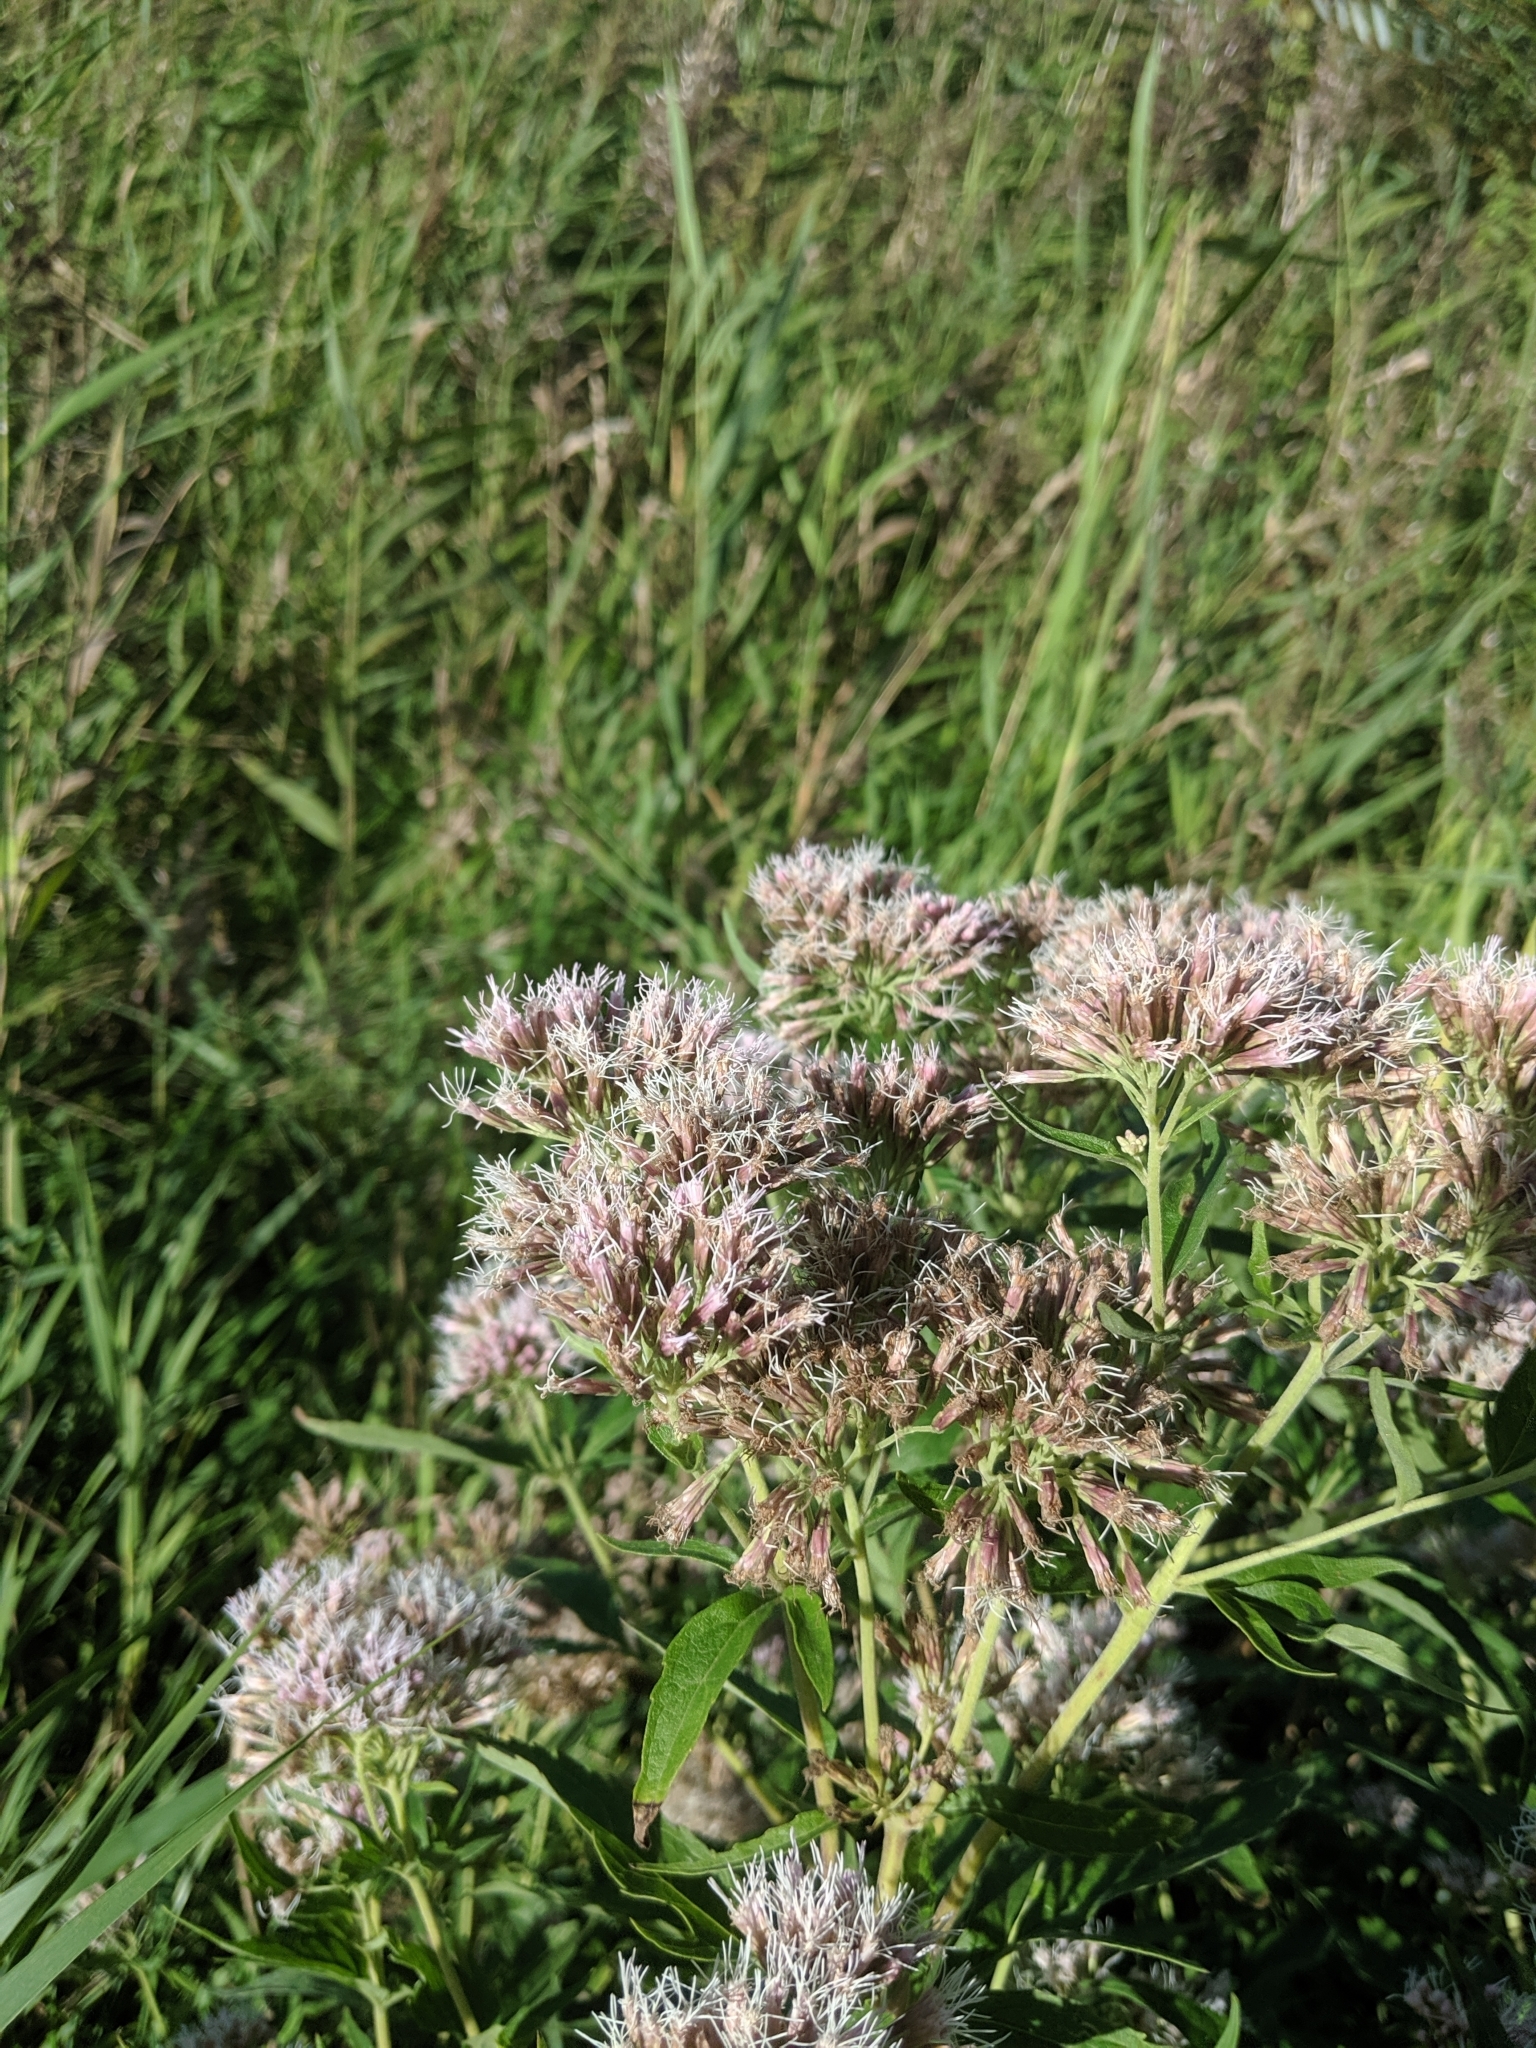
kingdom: Plantae
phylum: Tracheophyta
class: Magnoliopsida
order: Asterales
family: Asteraceae
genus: Eupatorium
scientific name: Eupatorium cannabinum
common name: Hemp-agrimony
